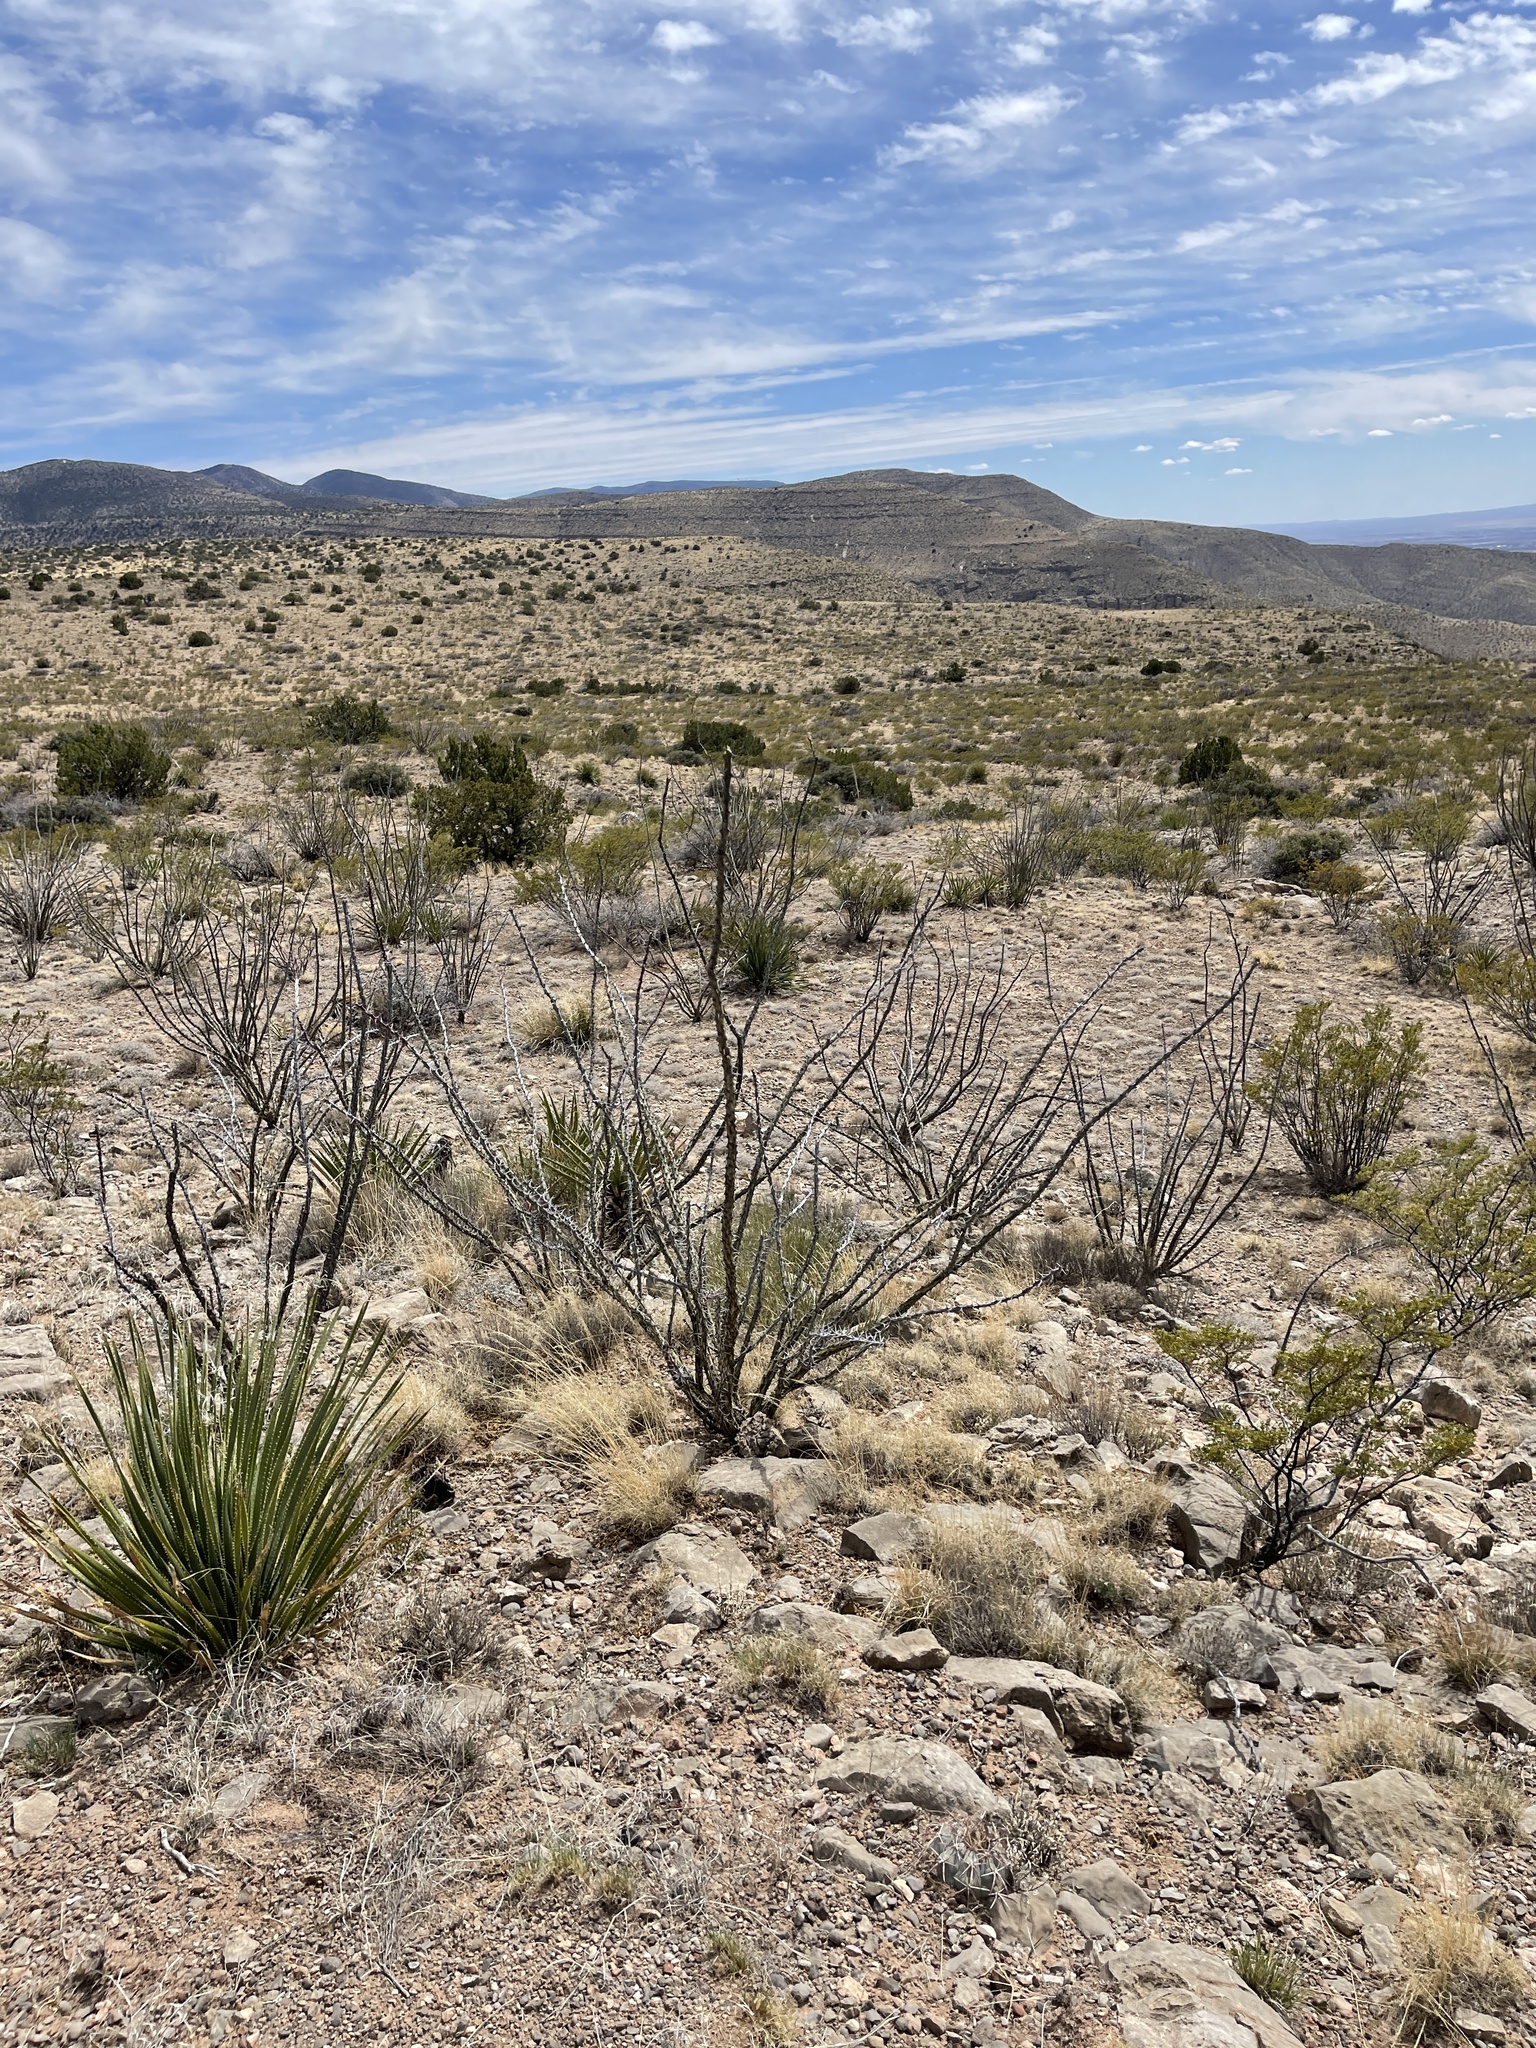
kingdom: Plantae
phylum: Tracheophyta
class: Magnoliopsida
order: Ericales
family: Fouquieriaceae
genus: Fouquieria
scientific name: Fouquieria splendens
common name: Vine-cactus
